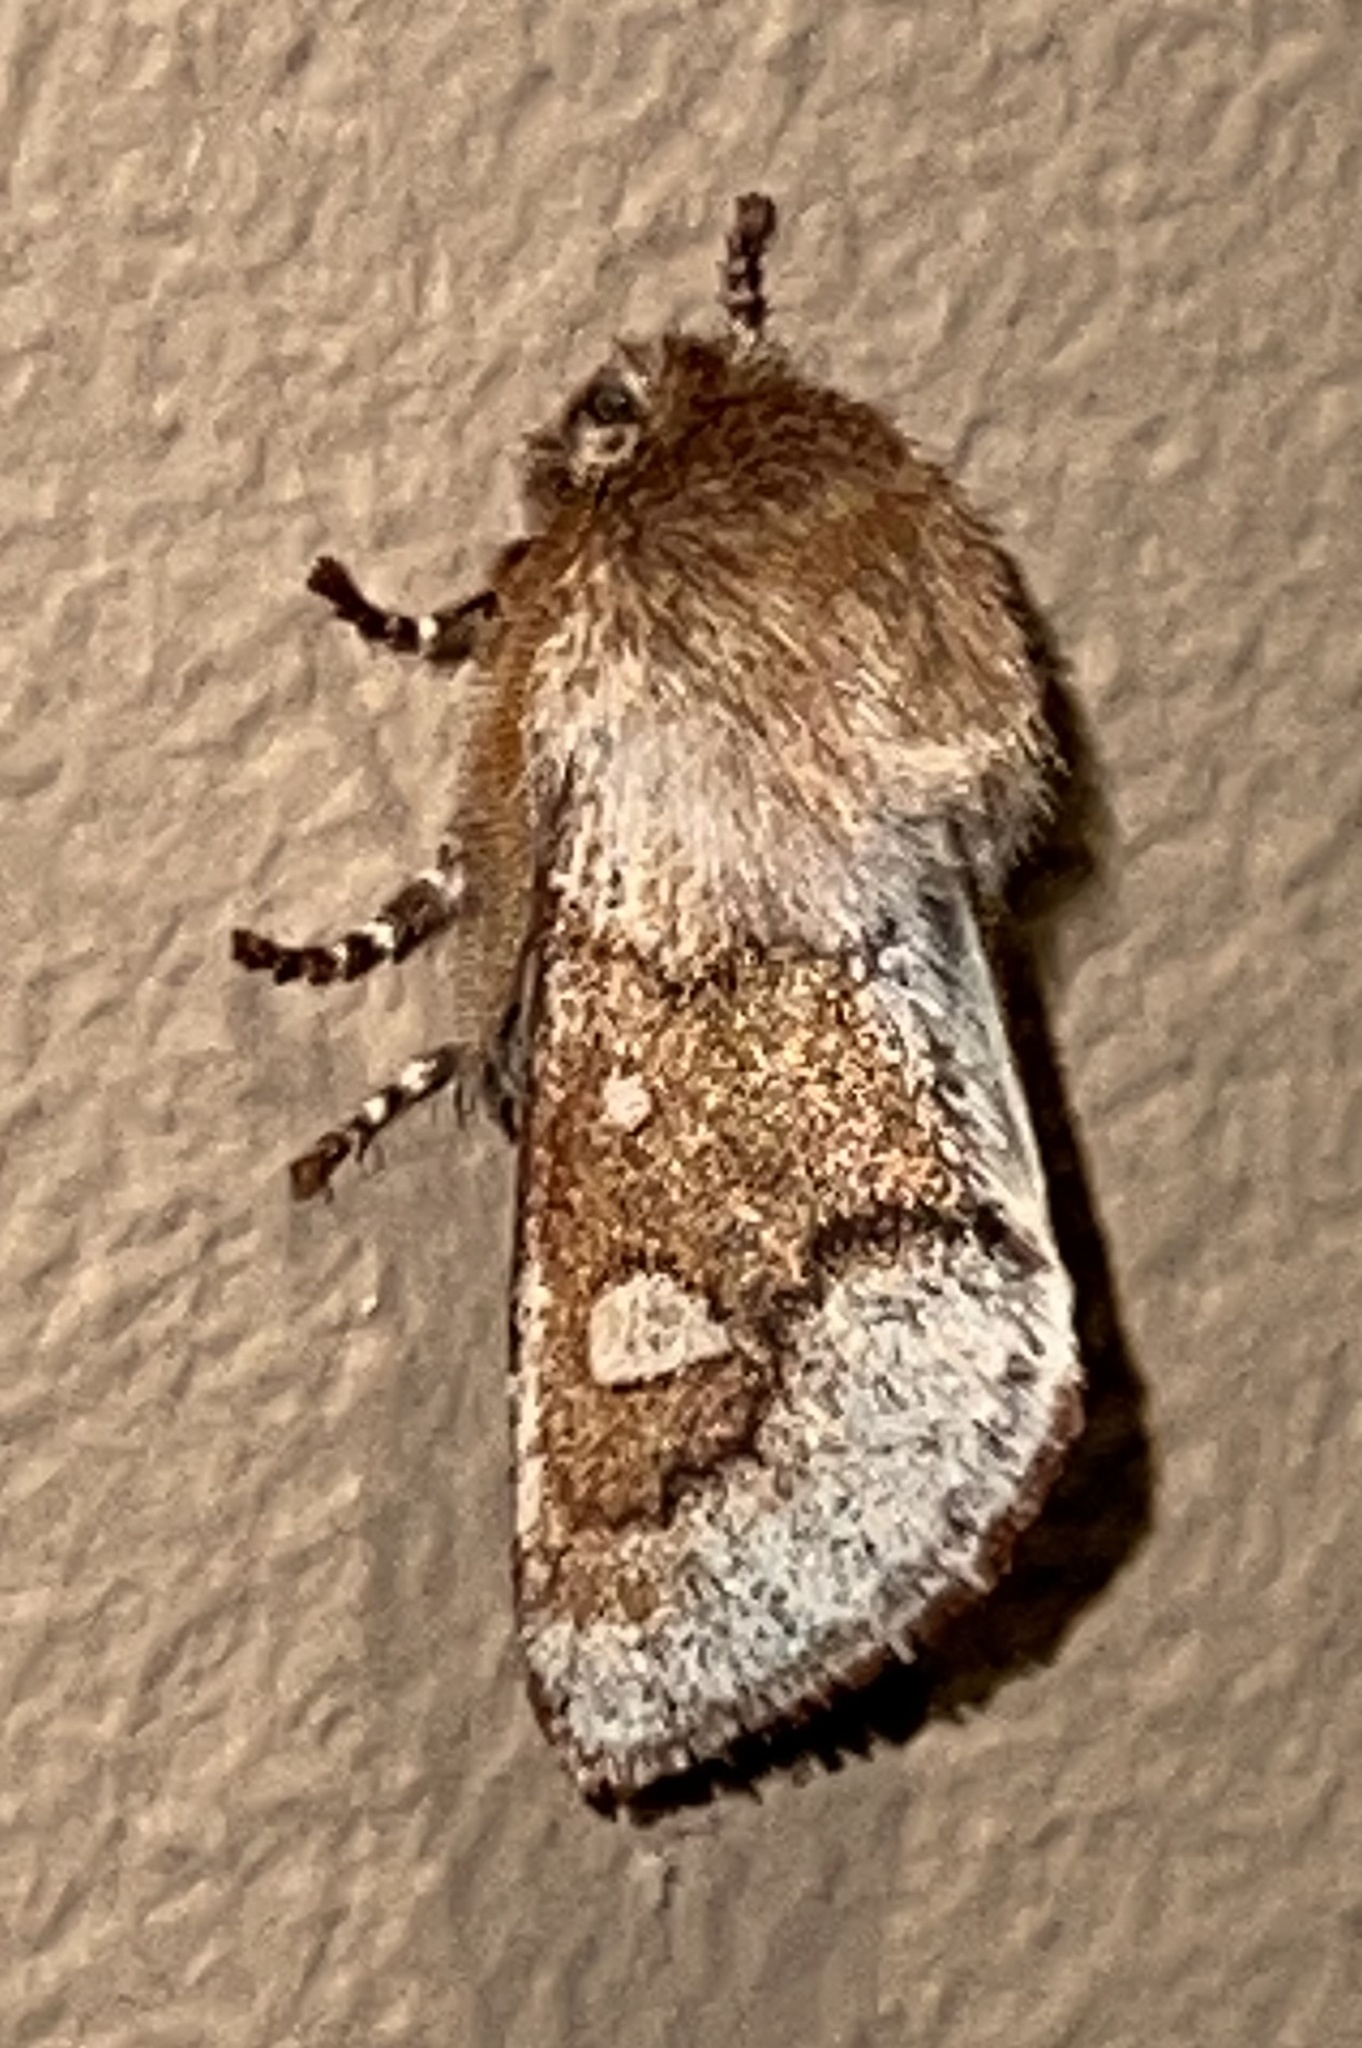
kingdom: Animalia
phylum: Arthropoda
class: Insecta
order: Lepidoptera
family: Noctuidae
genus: Psaphida
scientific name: Psaphida styracis
